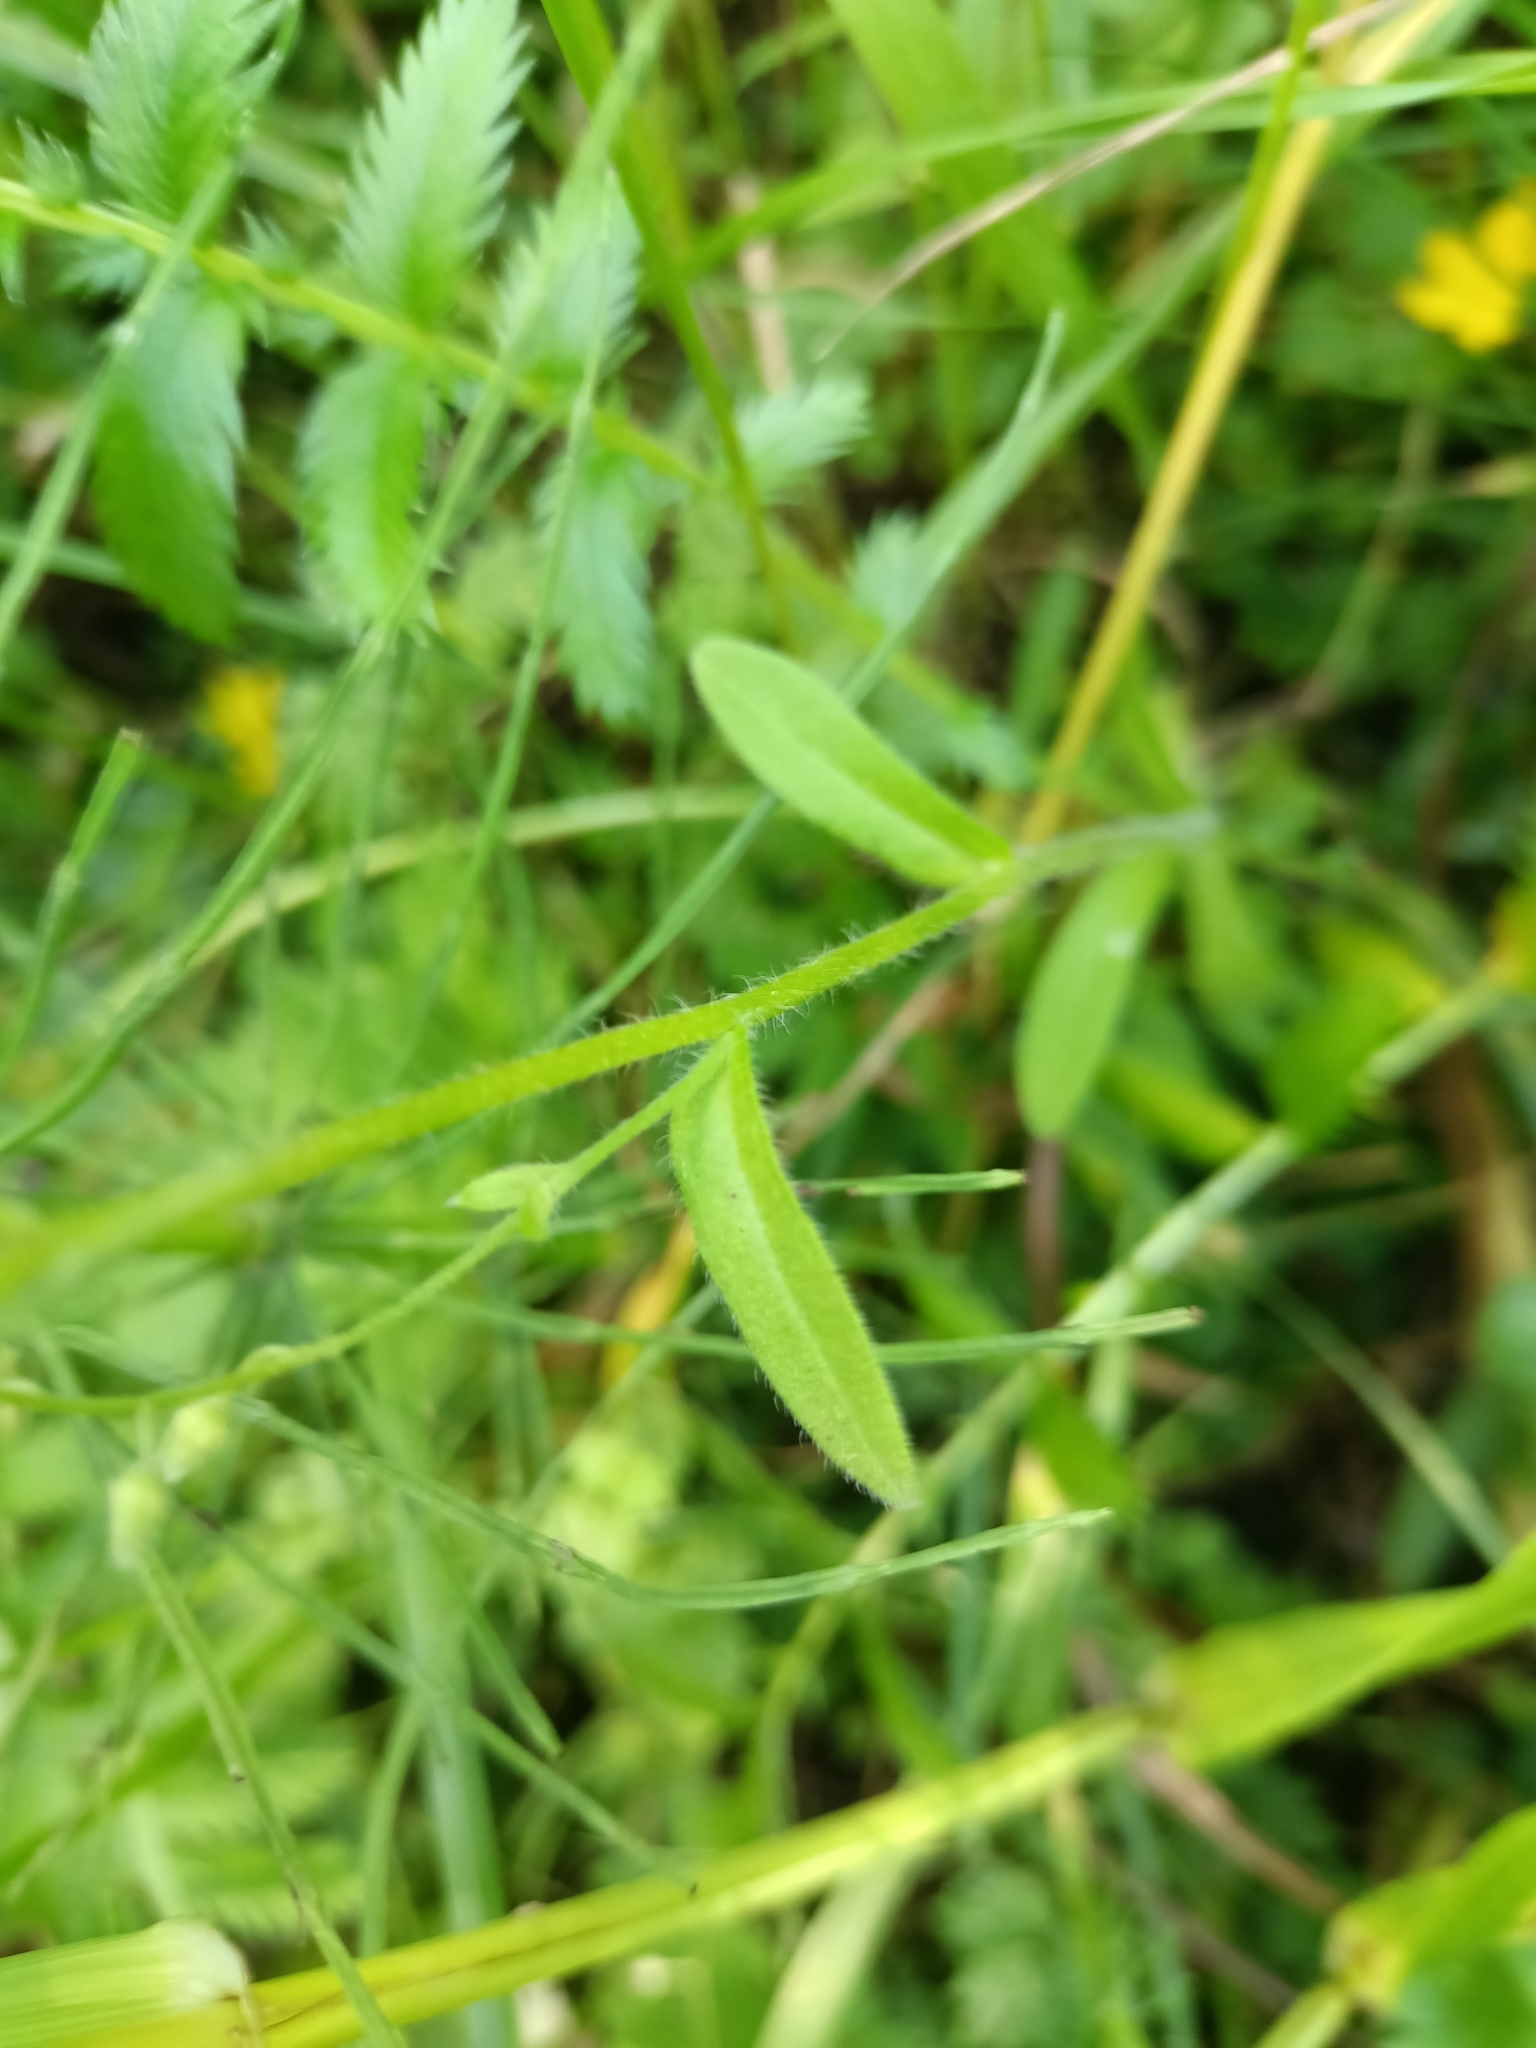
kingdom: Plantae
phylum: Tracheophyta
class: Magnoliopsida
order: Boraginales
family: Boraginaceae
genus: Myosotis
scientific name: Myosotis arvensis
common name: Field forget-me-not
